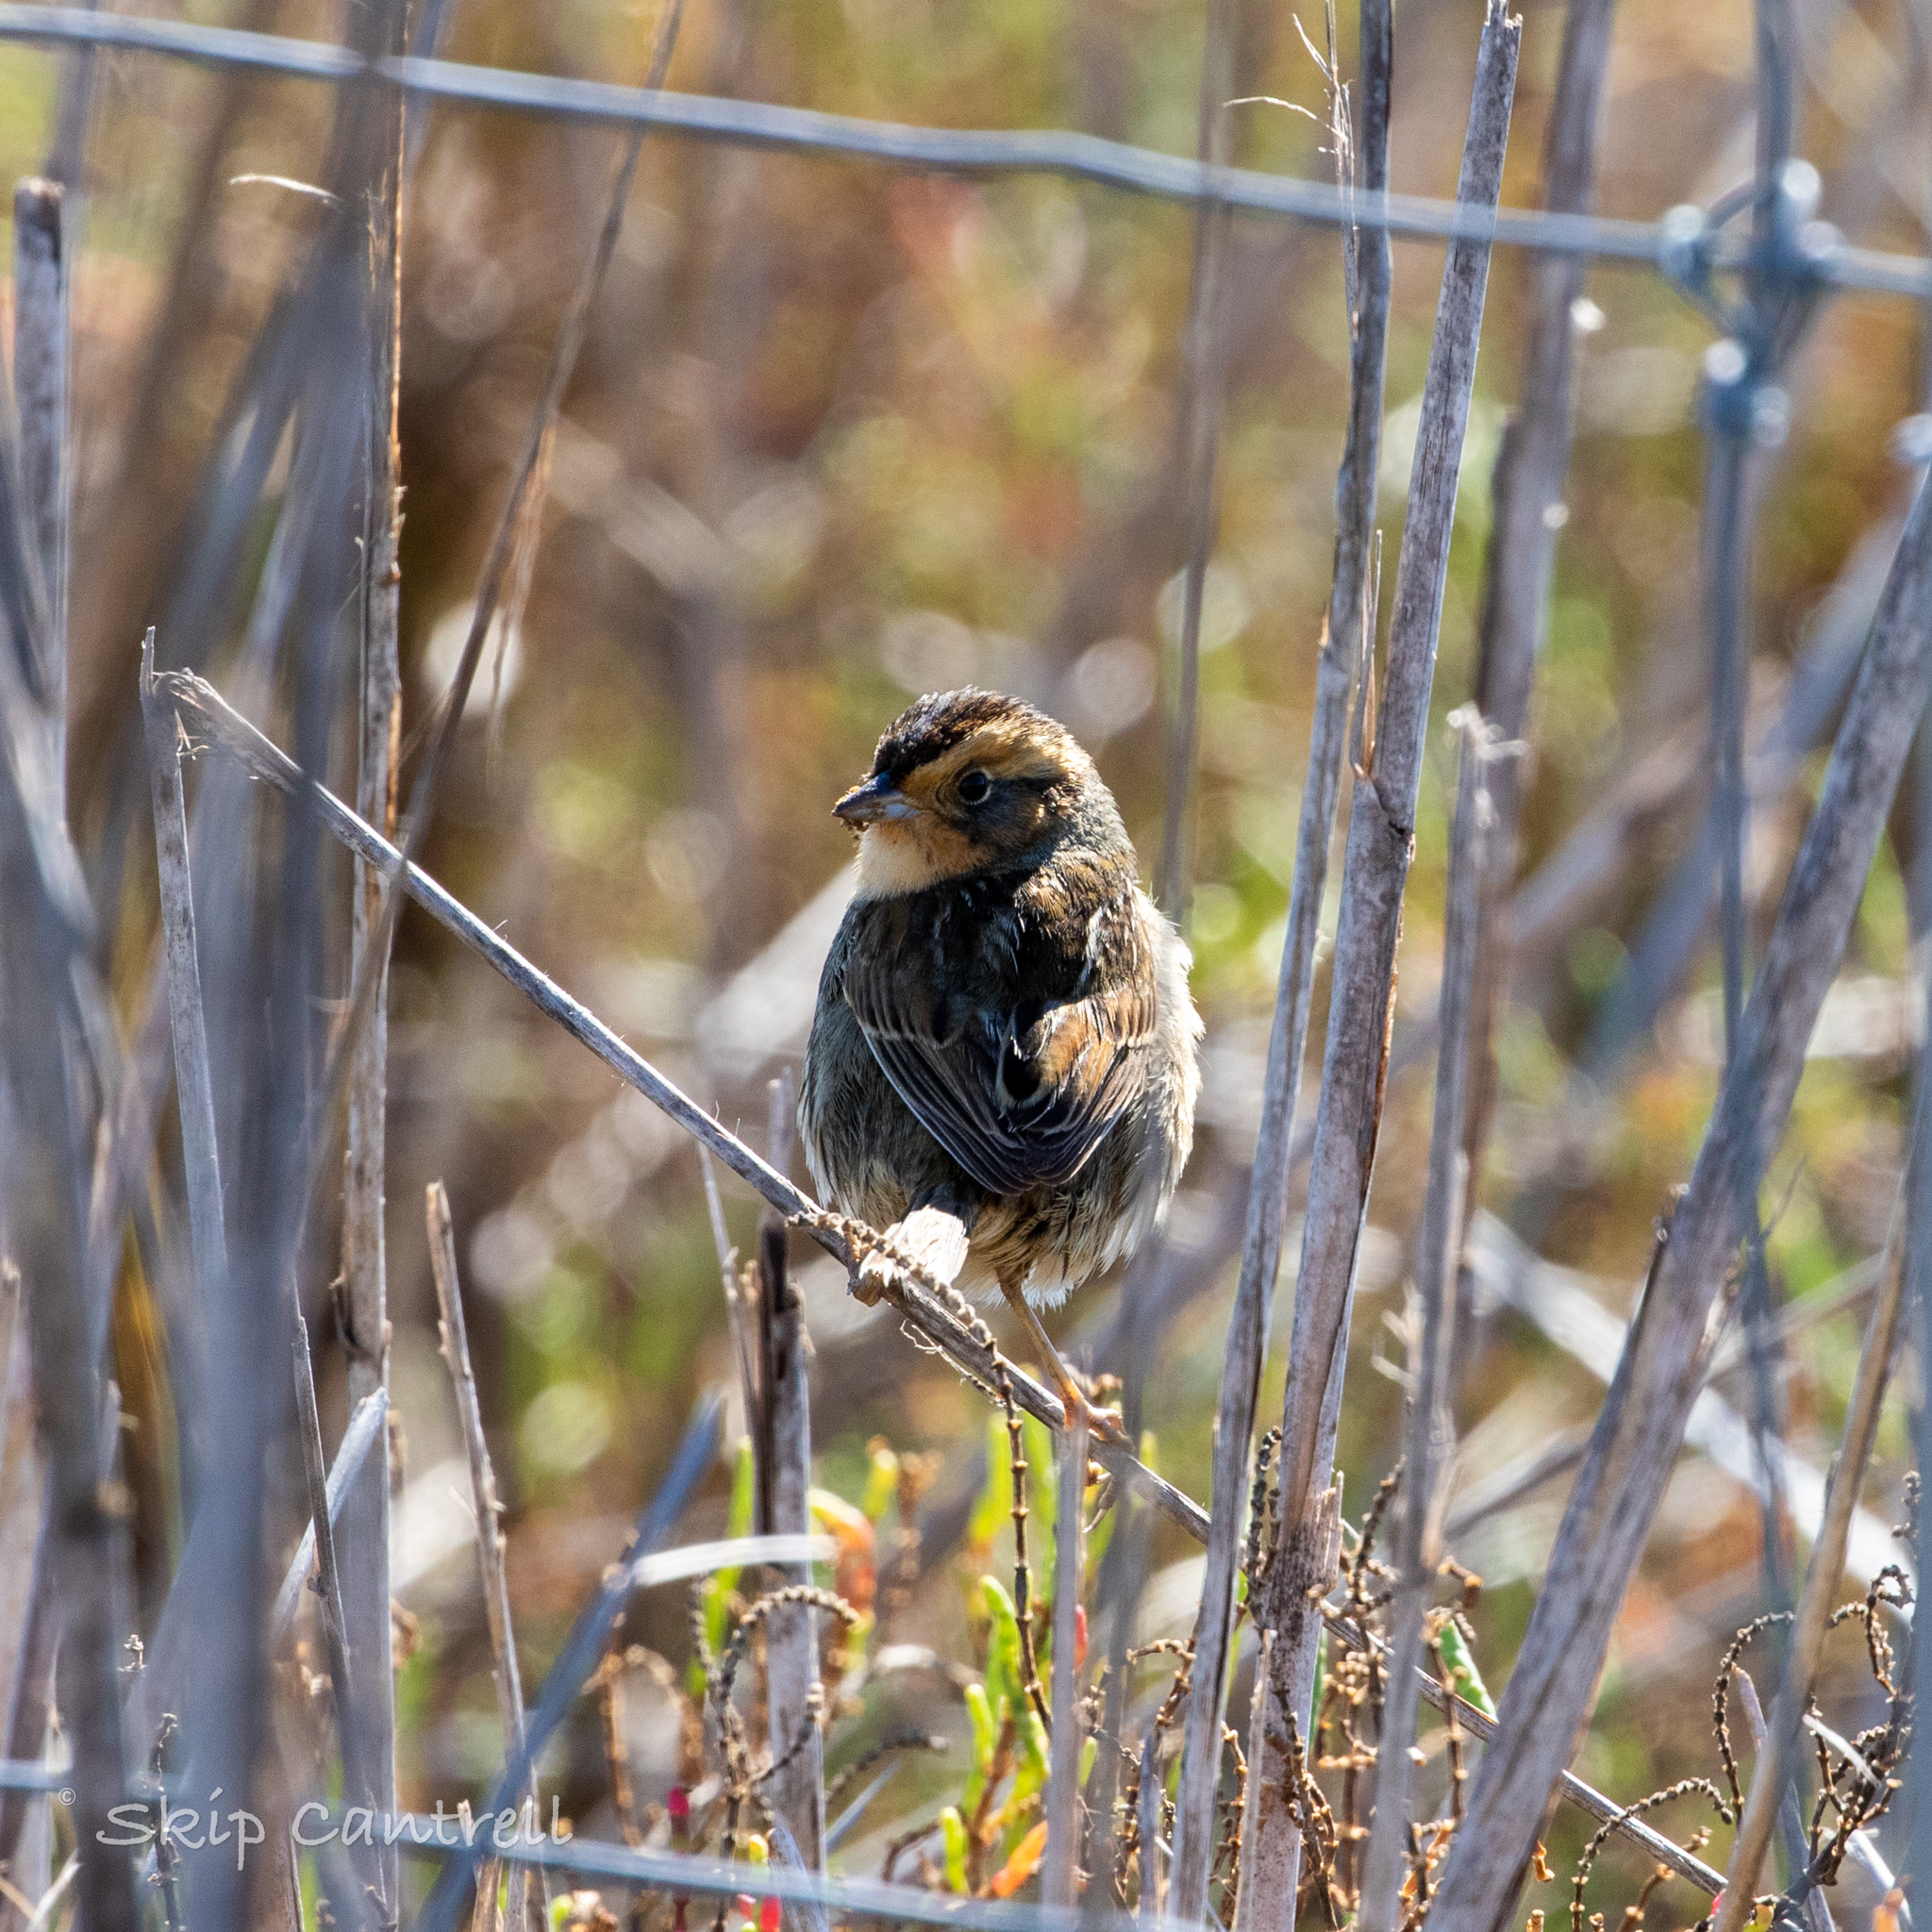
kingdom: Animalia
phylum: Chordata
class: Aves
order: Passeriformes
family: Passerellidae
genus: Ammospiza
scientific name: Ammospiza nelsoni
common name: Nelson's sparrow
